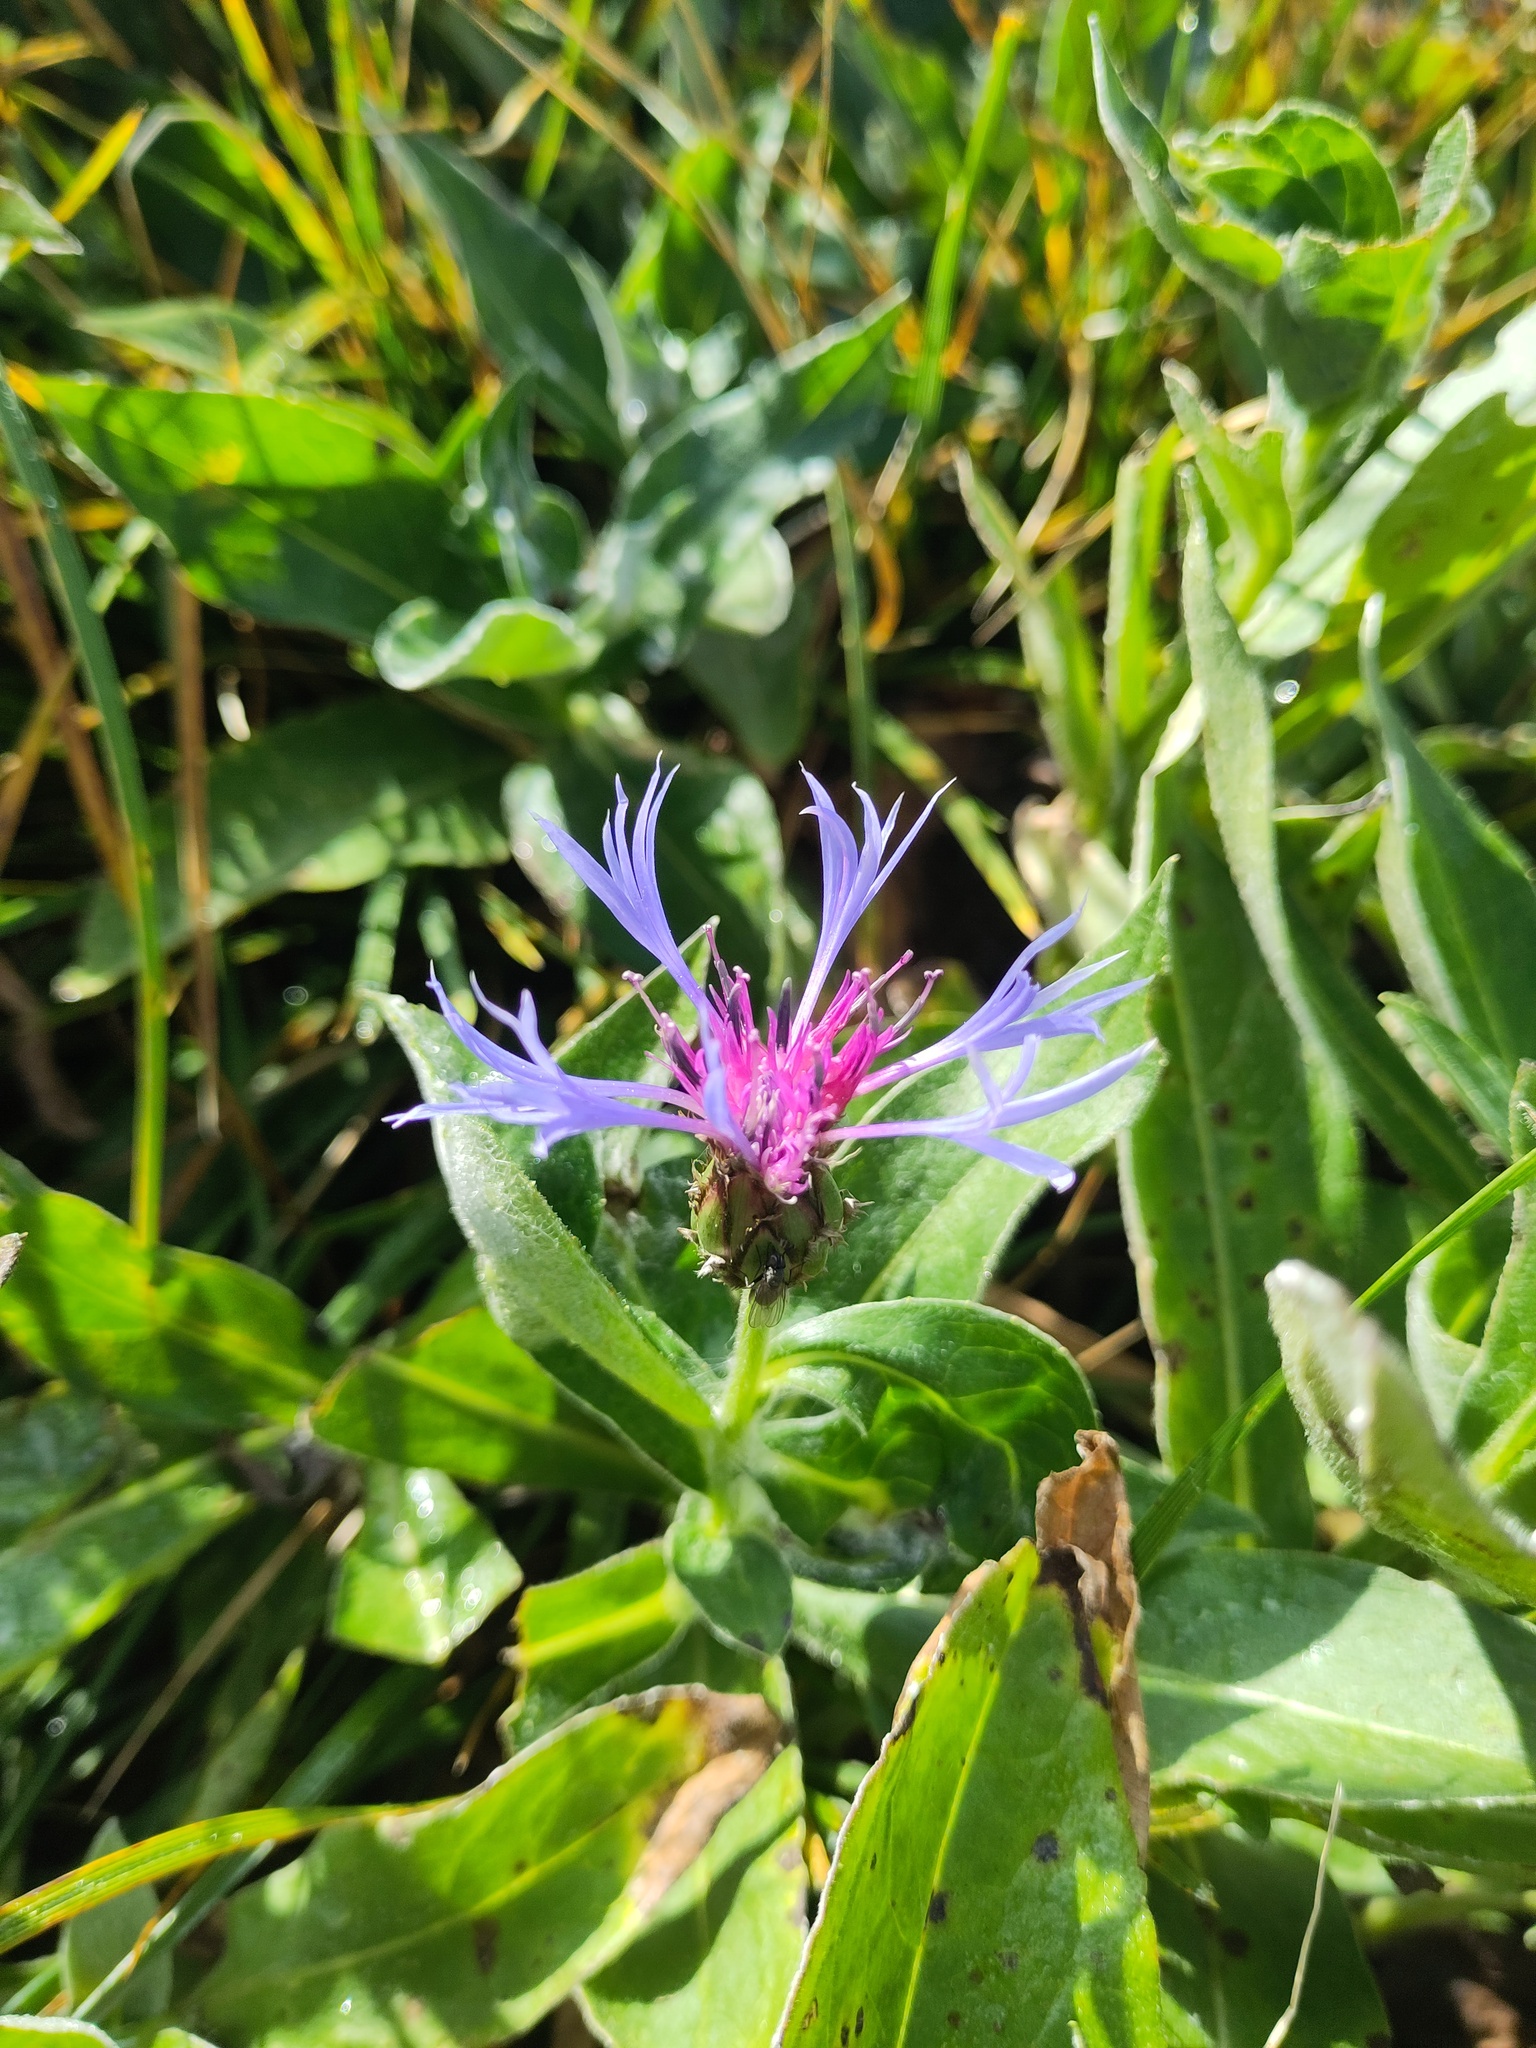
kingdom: Plantae
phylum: Tracheophyta
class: Magnoliopsida
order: Asterales
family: Asteraceae
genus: Centaurea
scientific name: Centaurea montana
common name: Perennial cornflower
